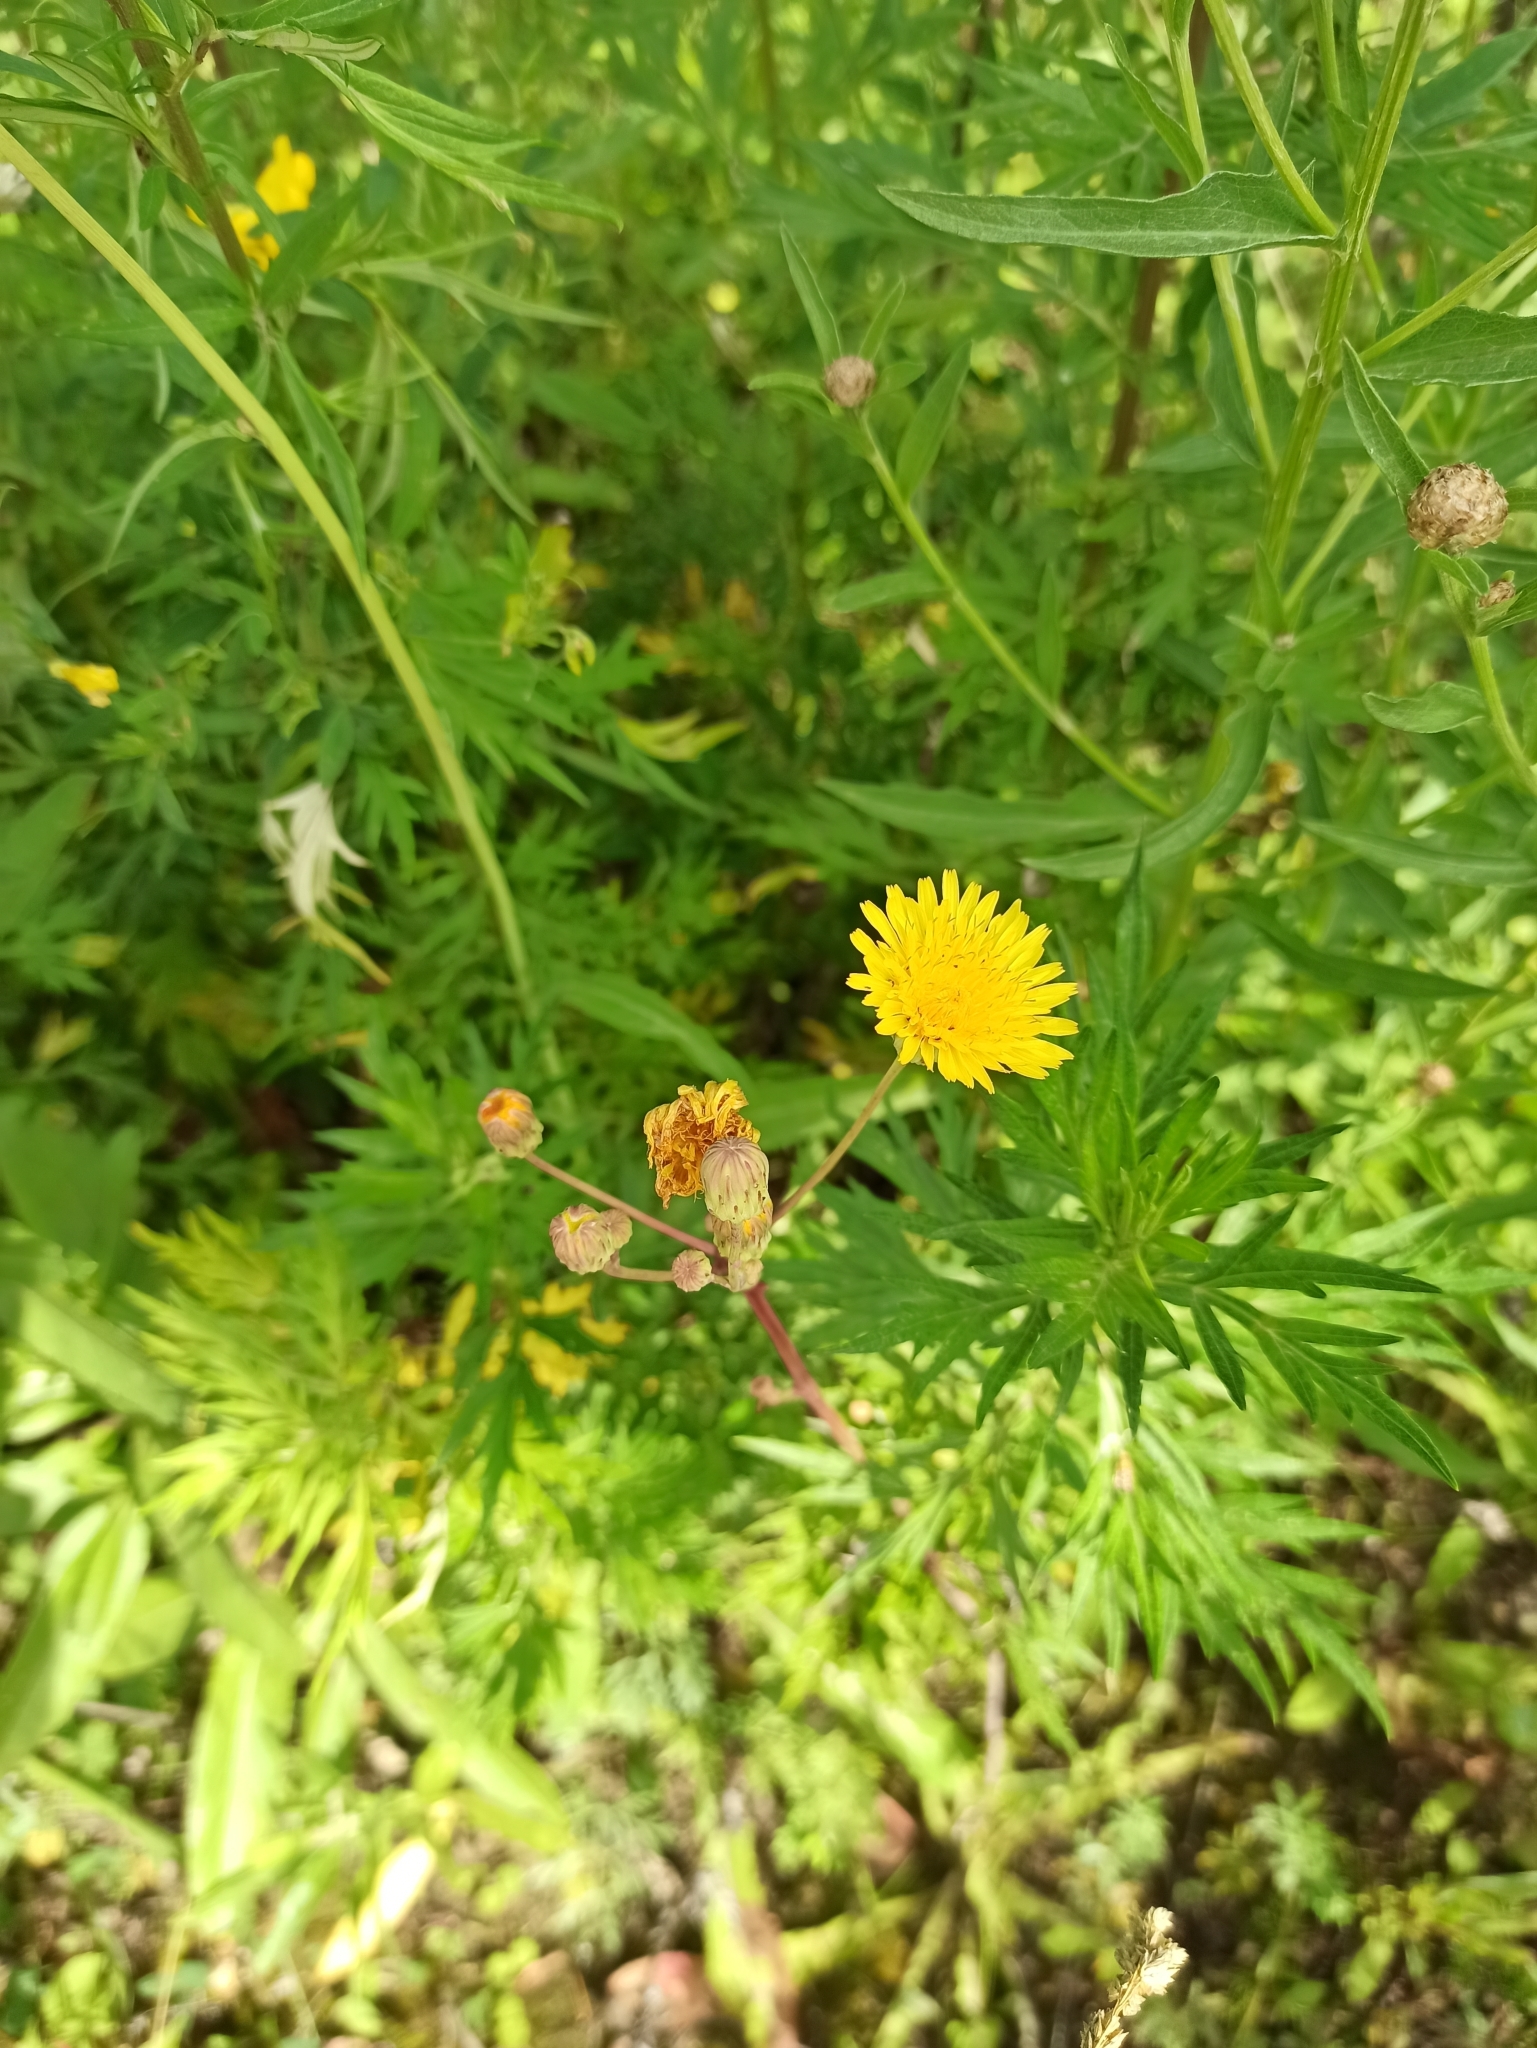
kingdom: Plantae
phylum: Tracheophyta
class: Magnoliopsida
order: Asterales
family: Asteraceae
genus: Sonchus
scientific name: Sonchus arvensis
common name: Perennial sow-thistle
